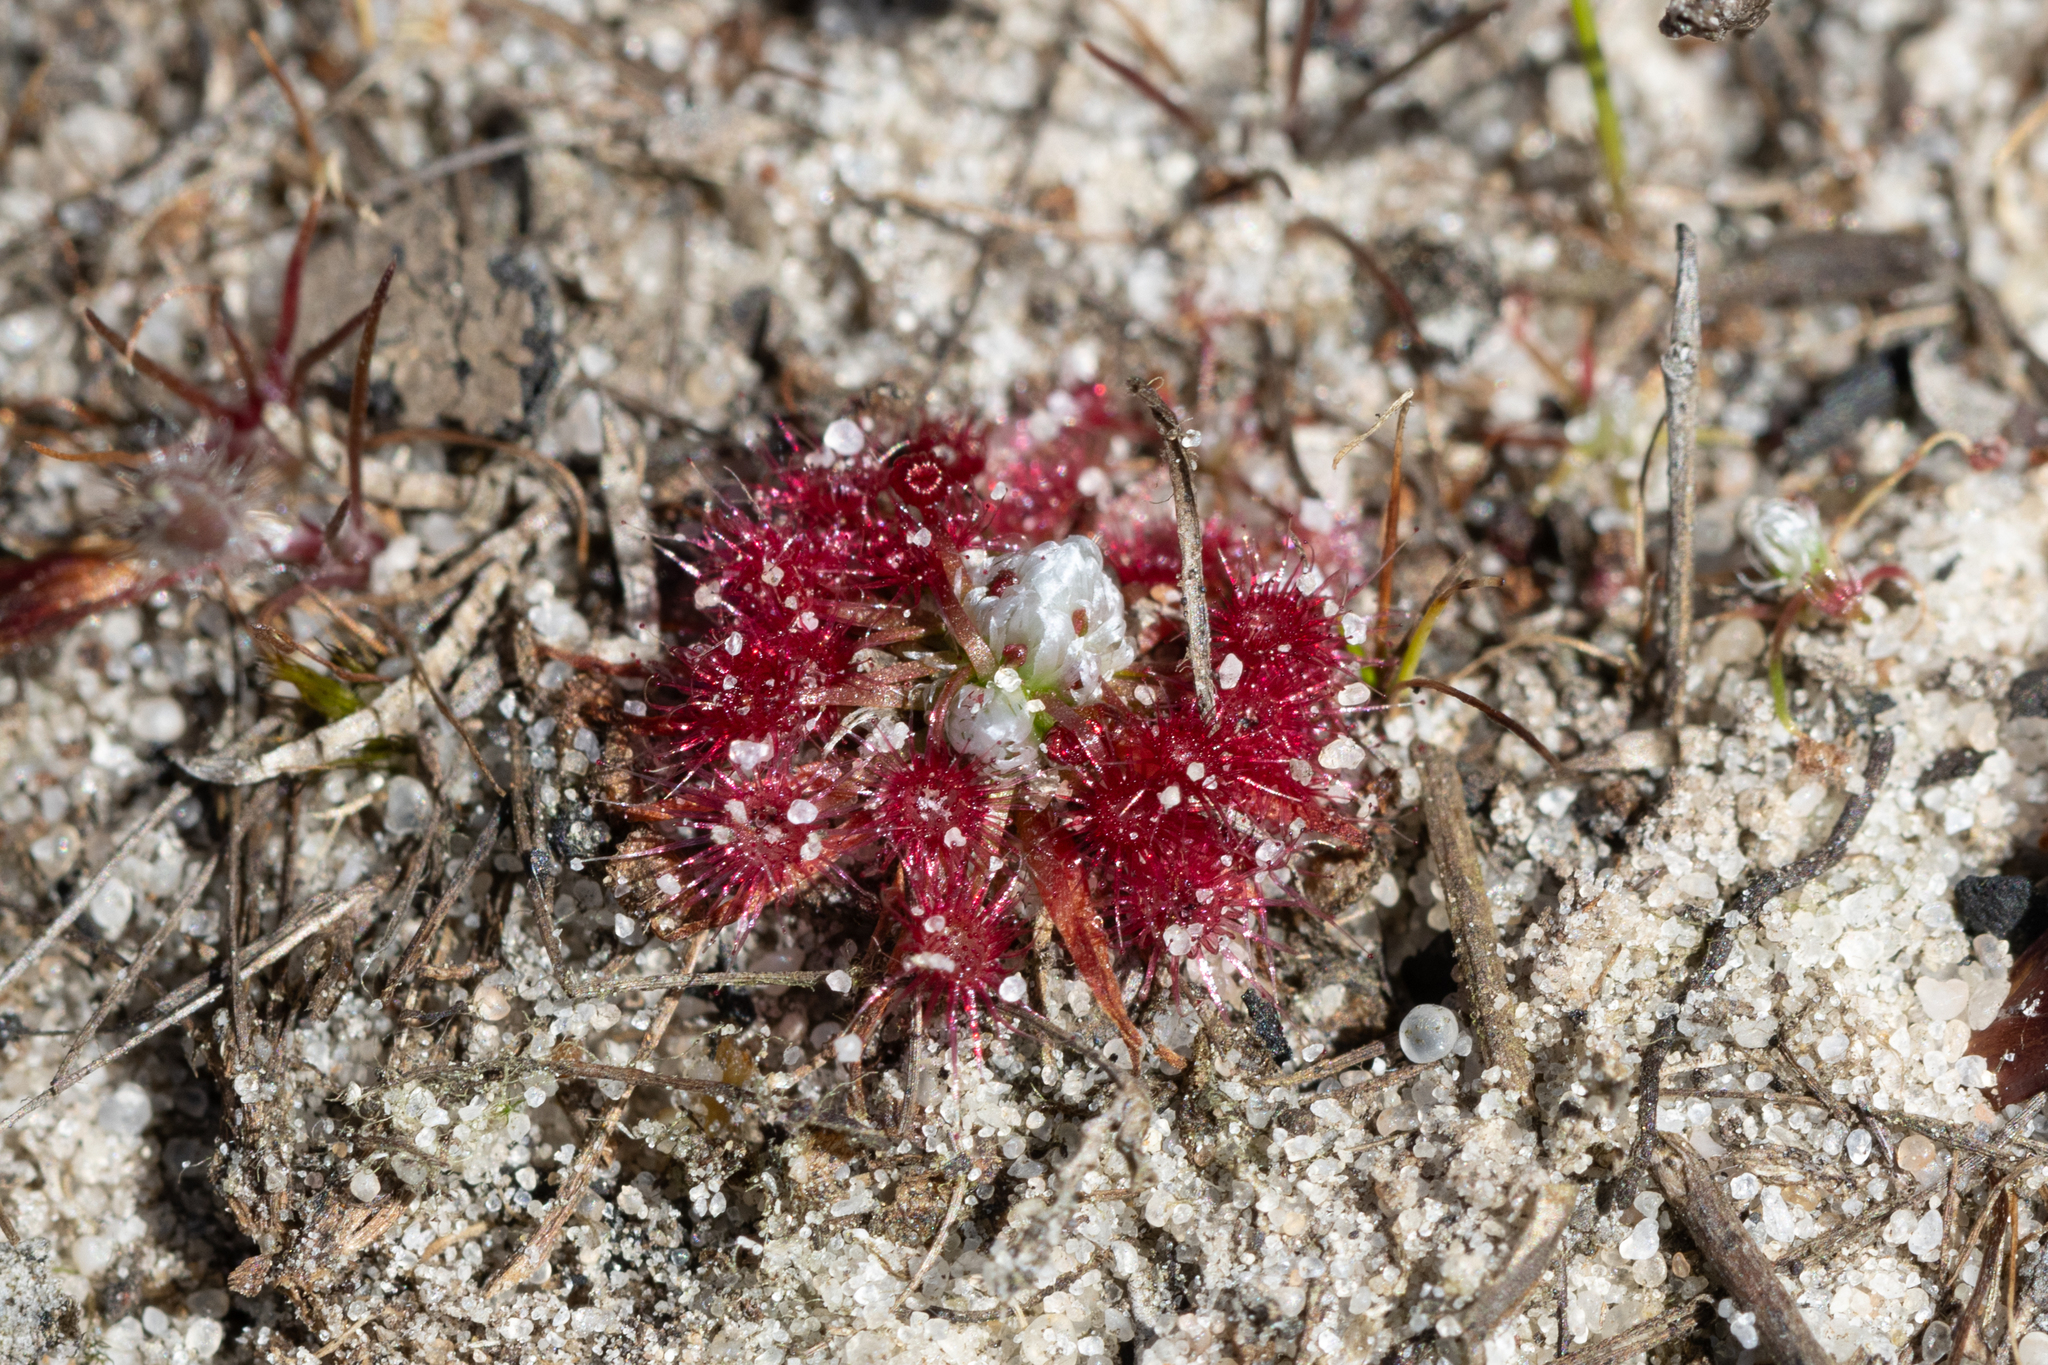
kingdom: Plantae
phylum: Tracheophyta
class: Magnoliopsida
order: Caryophyllales
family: Droseraceae
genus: Drosera
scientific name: Drosera pygmaea
